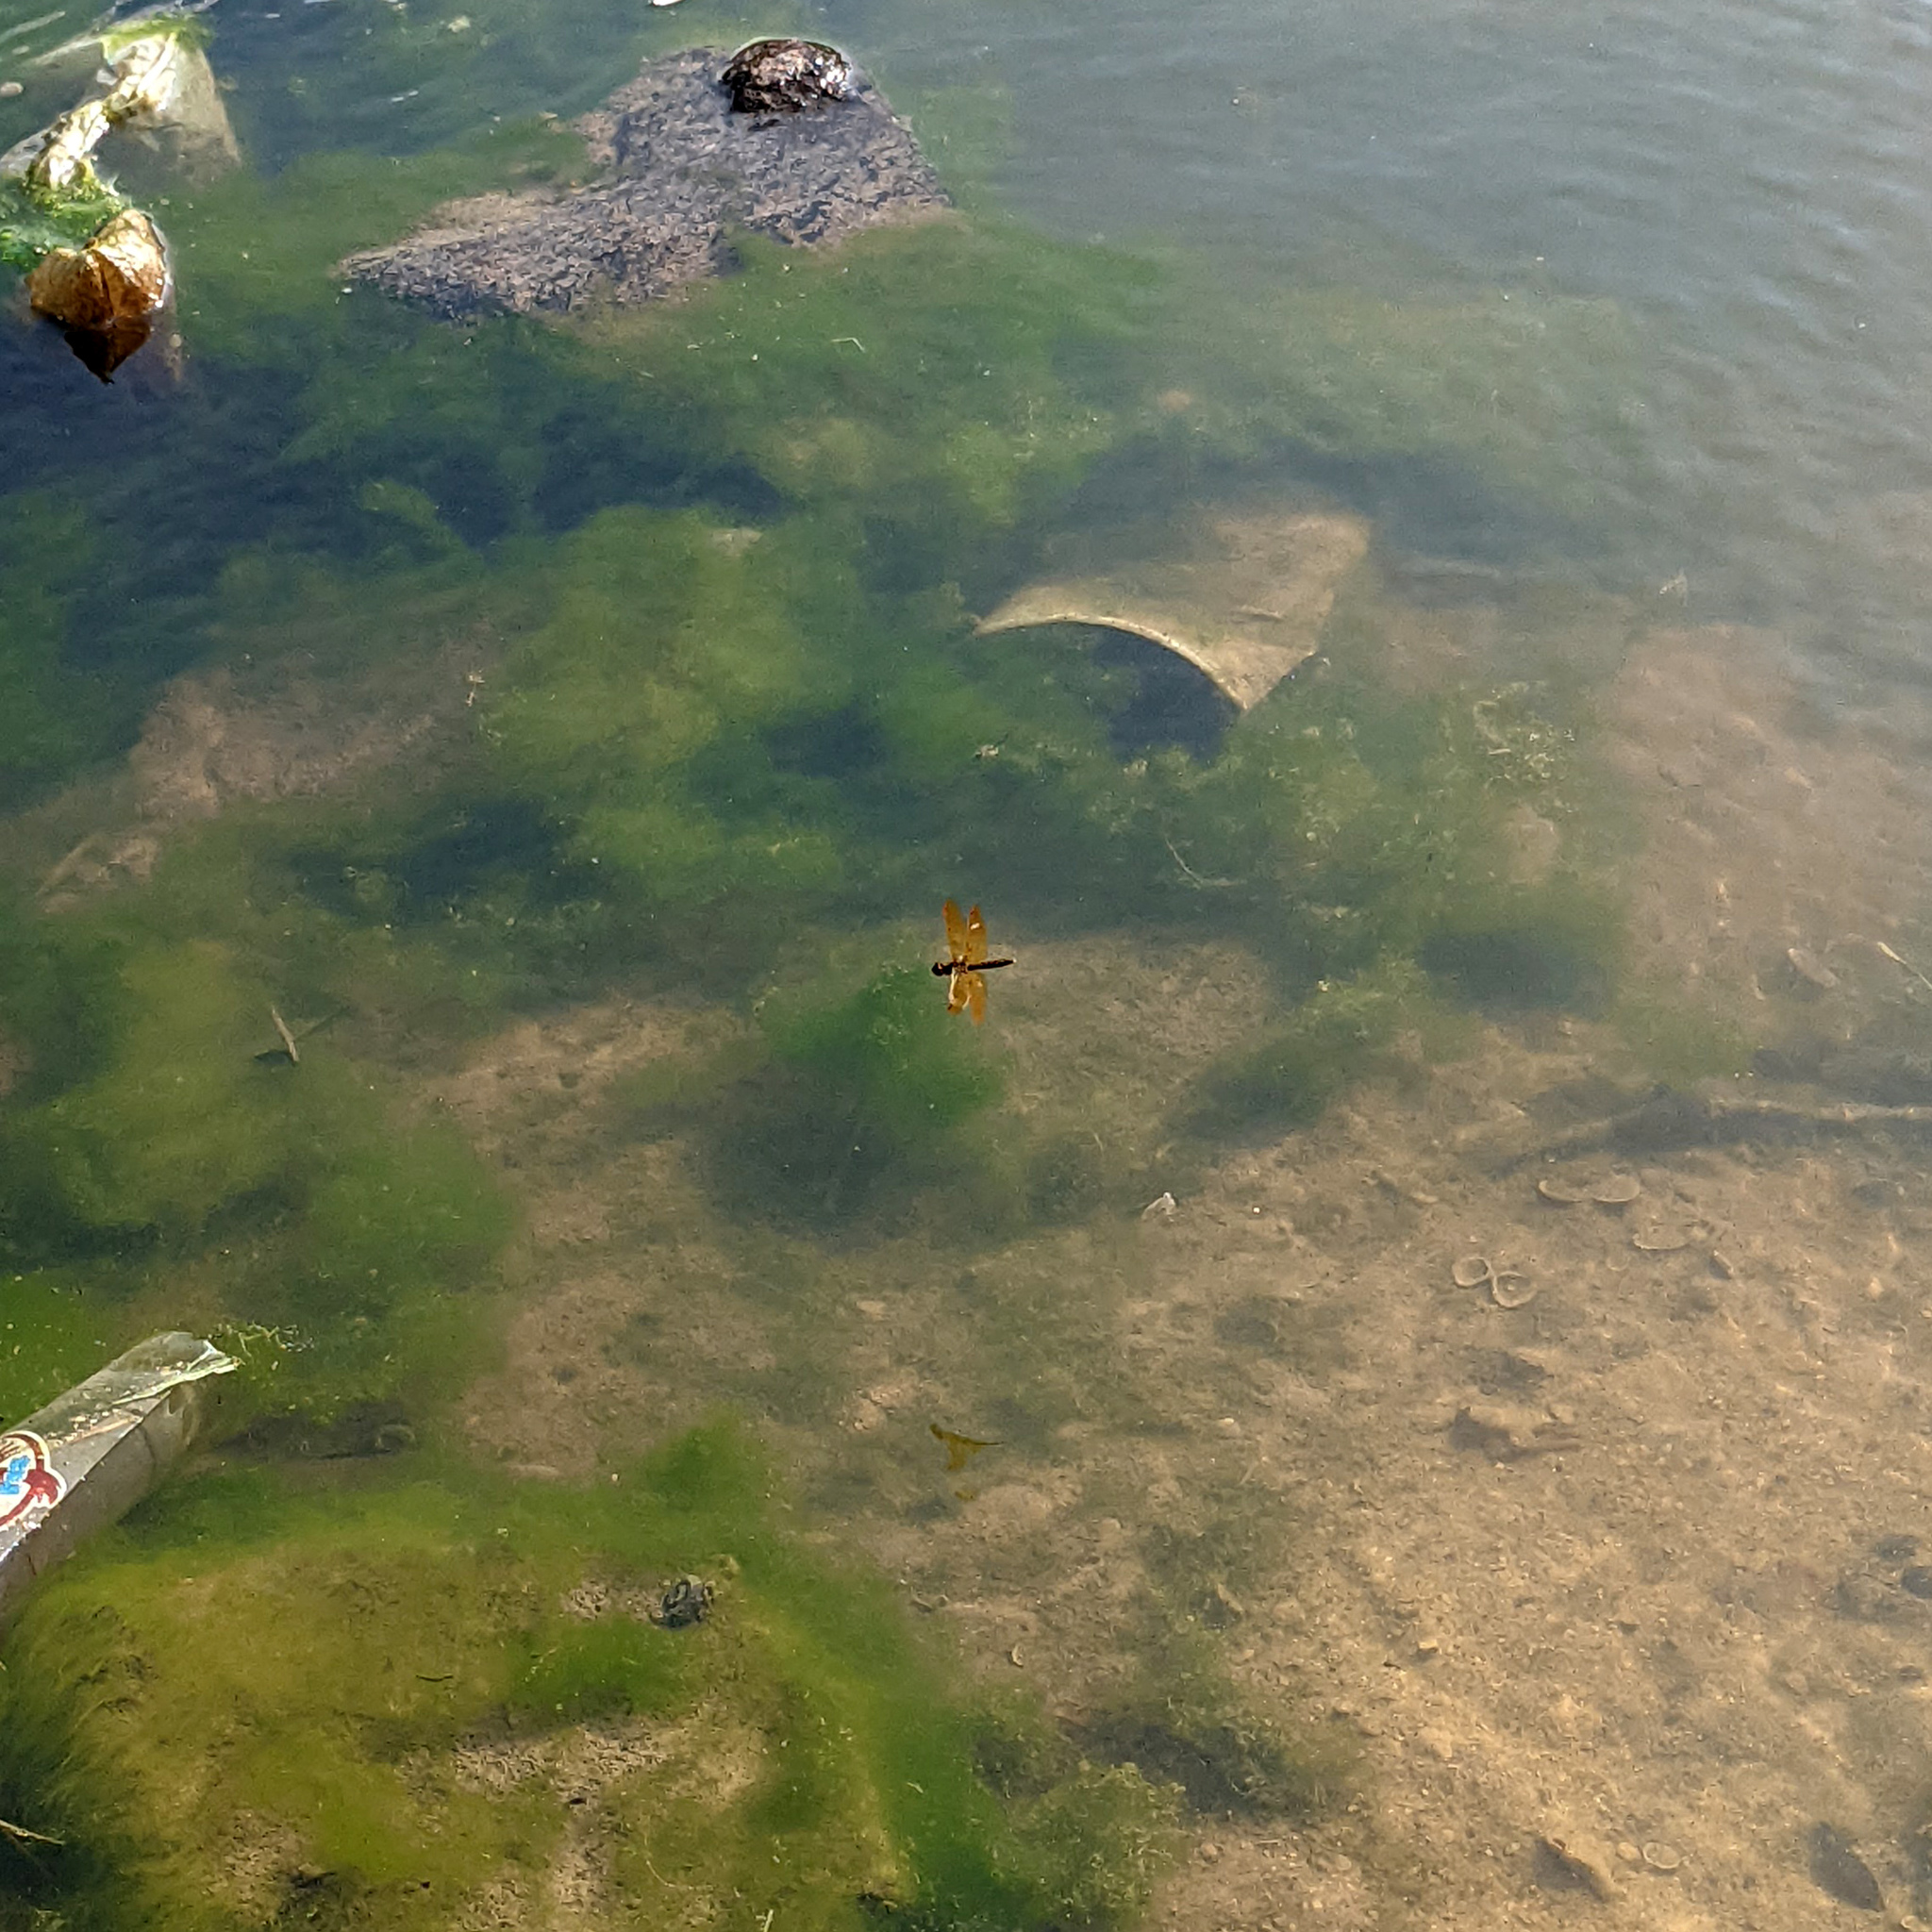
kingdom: Animalia
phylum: Arthropoda
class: Insecta
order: Odonata
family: Libellulidae
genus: Perithemis
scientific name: Perithemis tenera
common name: Eastern amberwing
